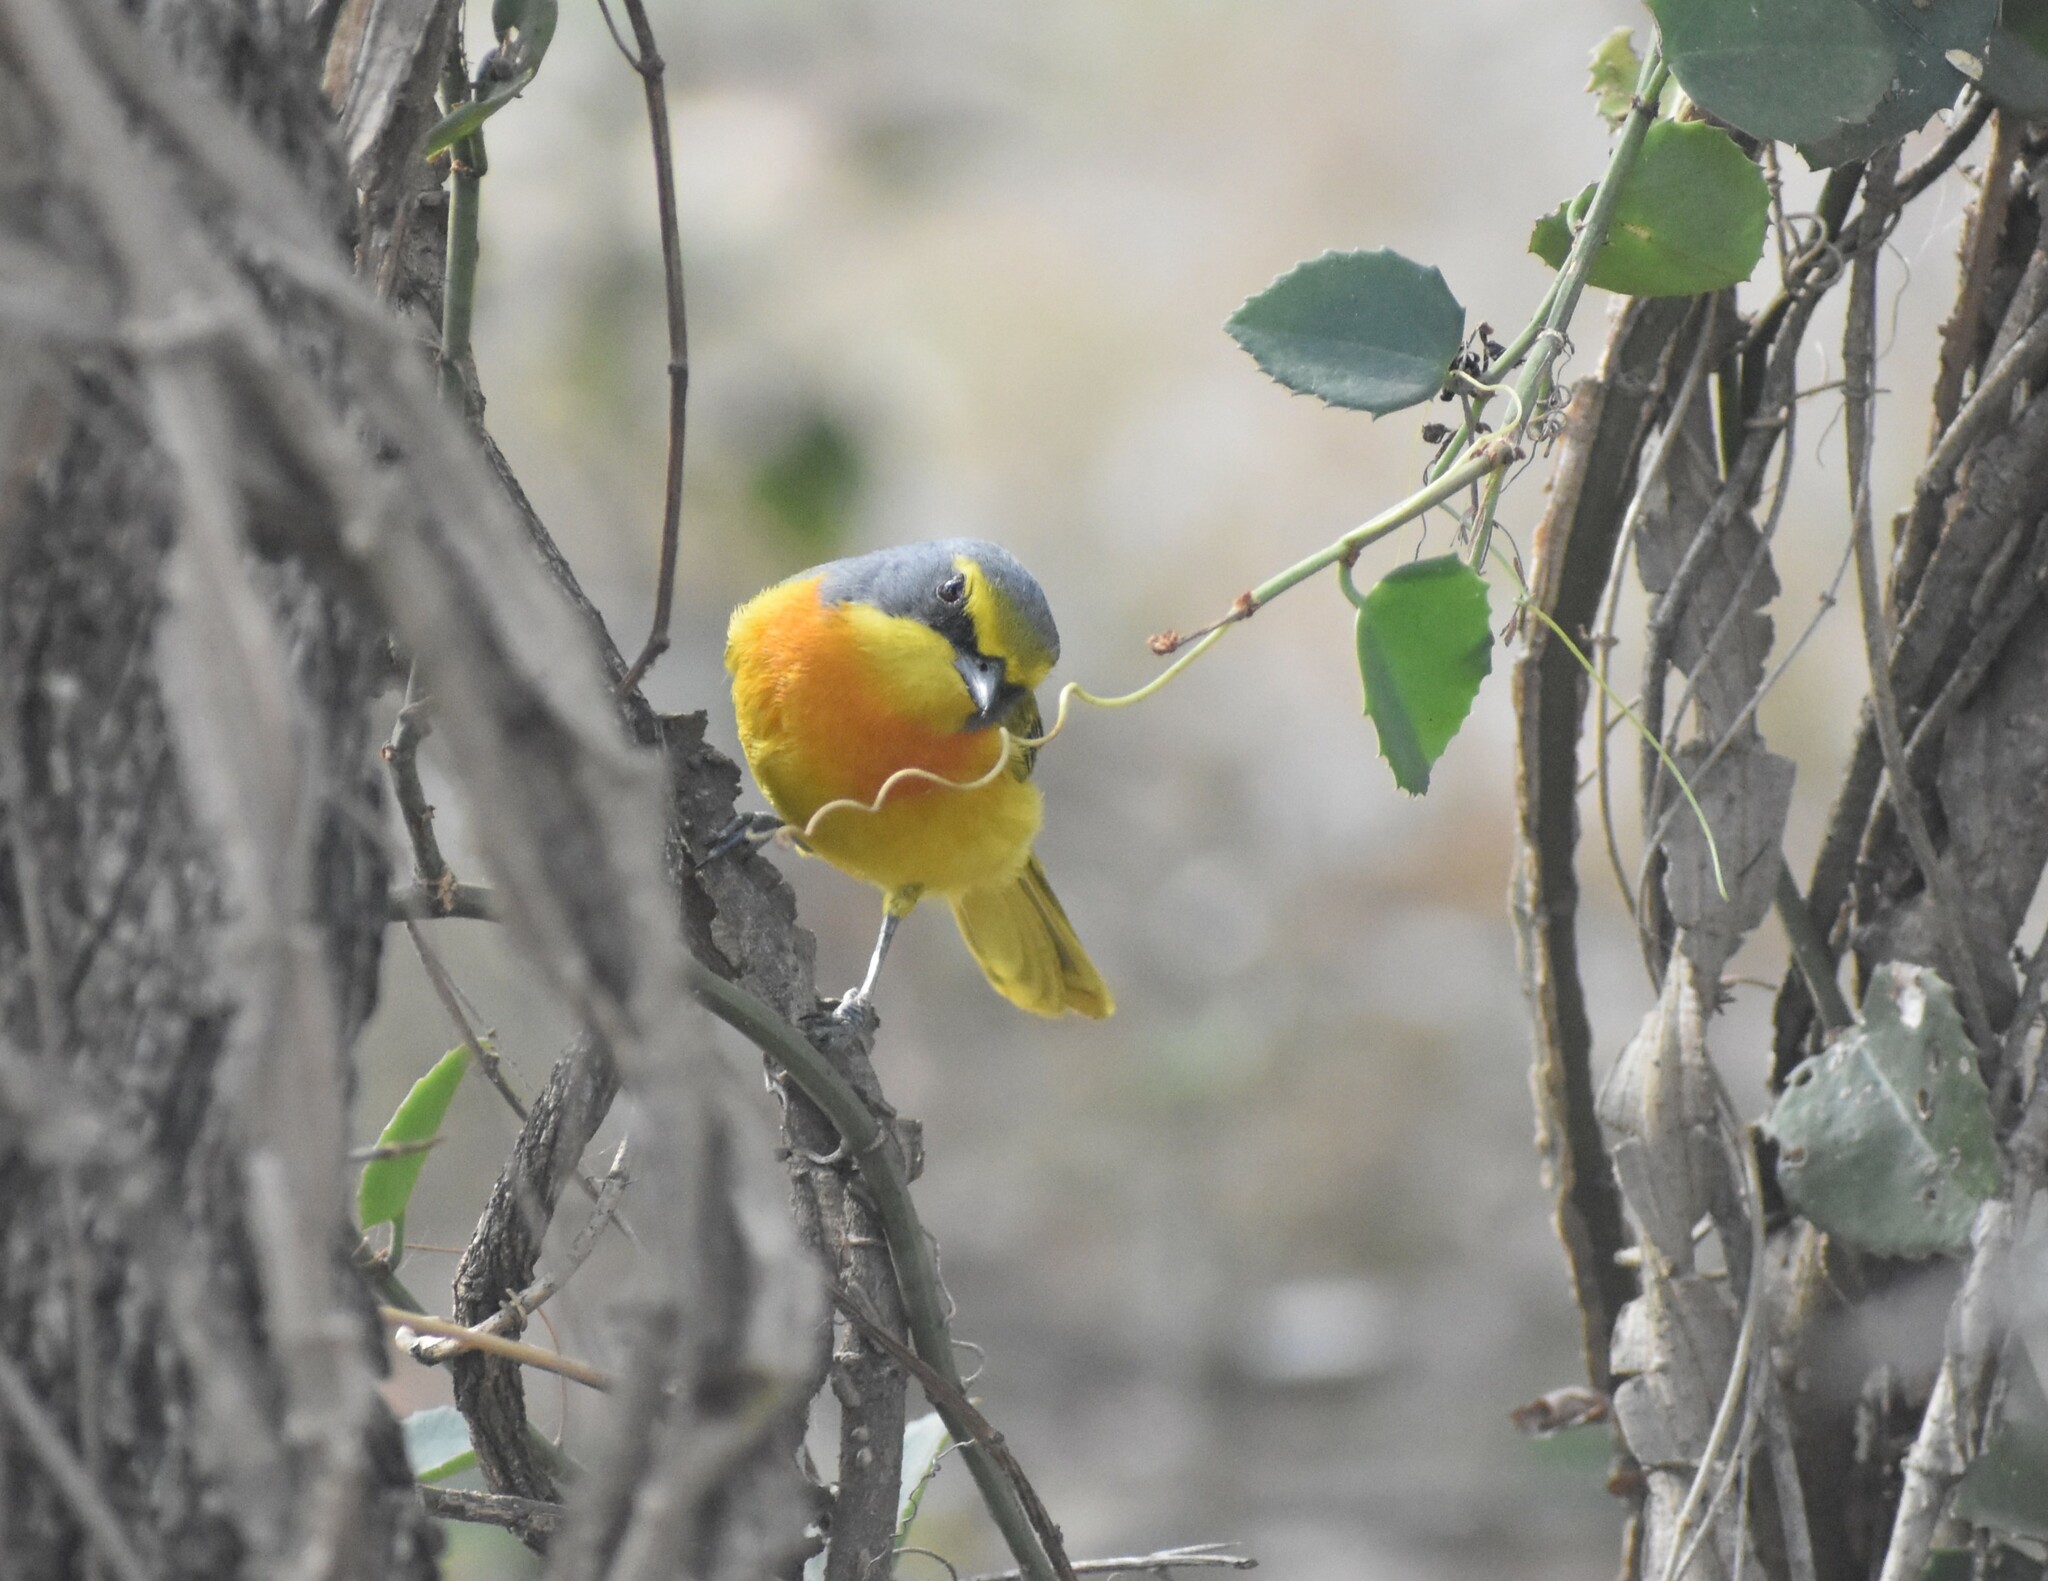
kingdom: Animalia
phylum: Chordata
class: Aves
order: Passeriformes
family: Malaconotidae
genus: Chlorophoneus
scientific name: Chlorophoneus sulfureopectus
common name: Orange-breasted bushshrike
